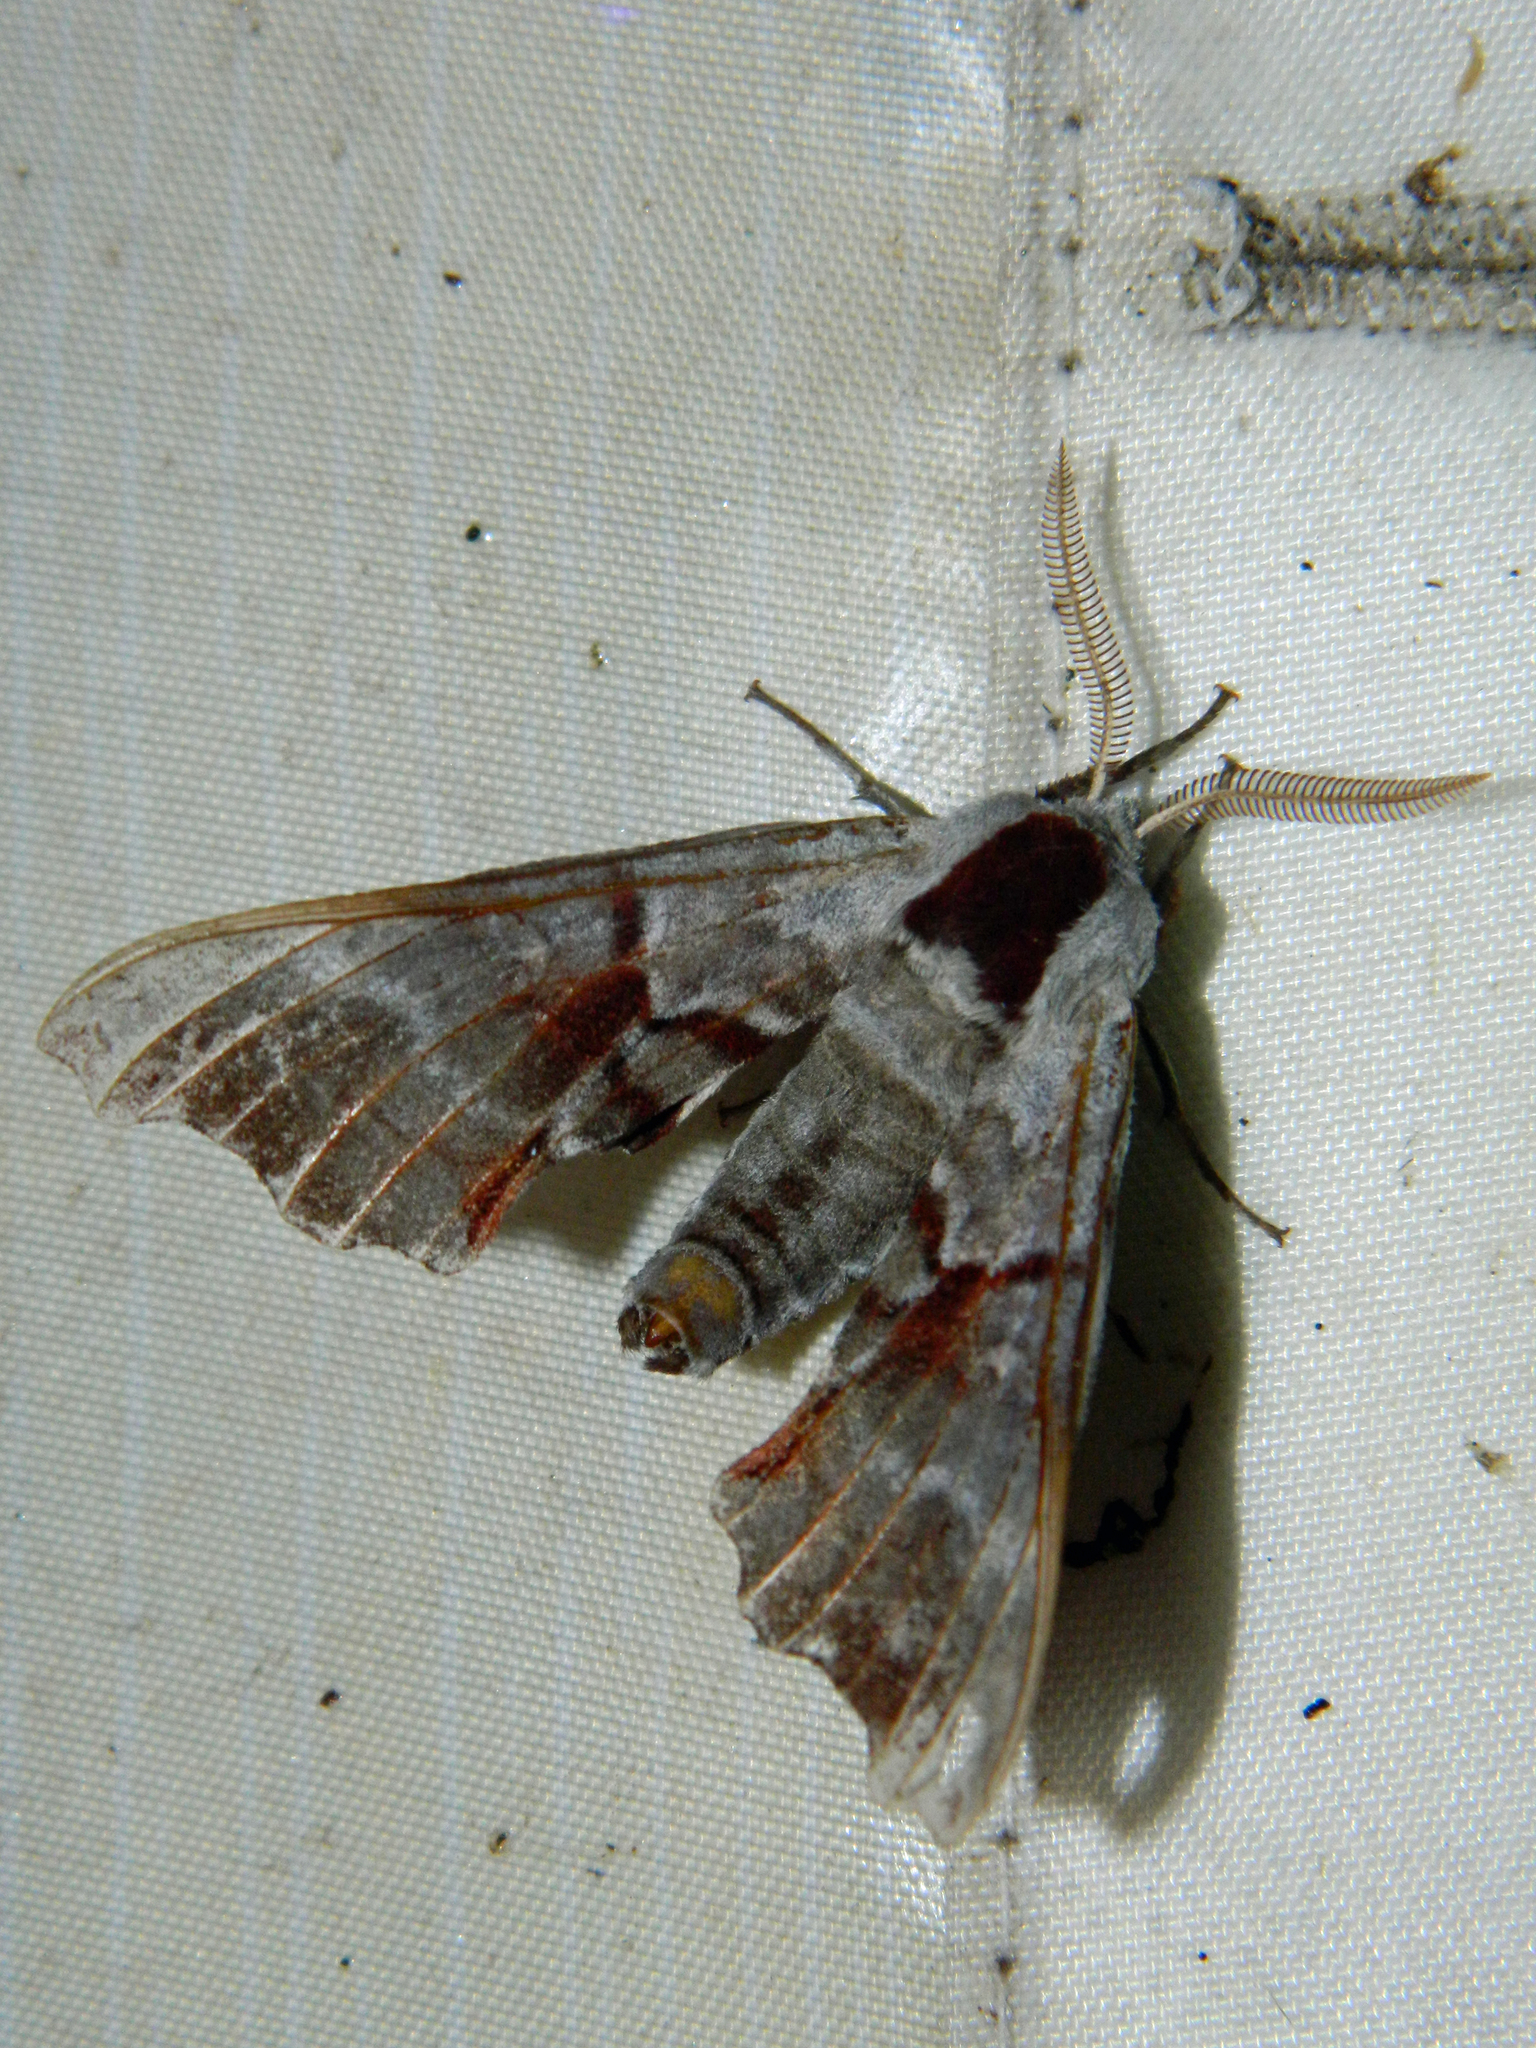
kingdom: Animalia
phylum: Arthropoda
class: Insecta
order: Lepidoptera
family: Sphingidae
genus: Smerinthus
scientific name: Smerinthus jamaicensis
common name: Twin spotted sphinx
